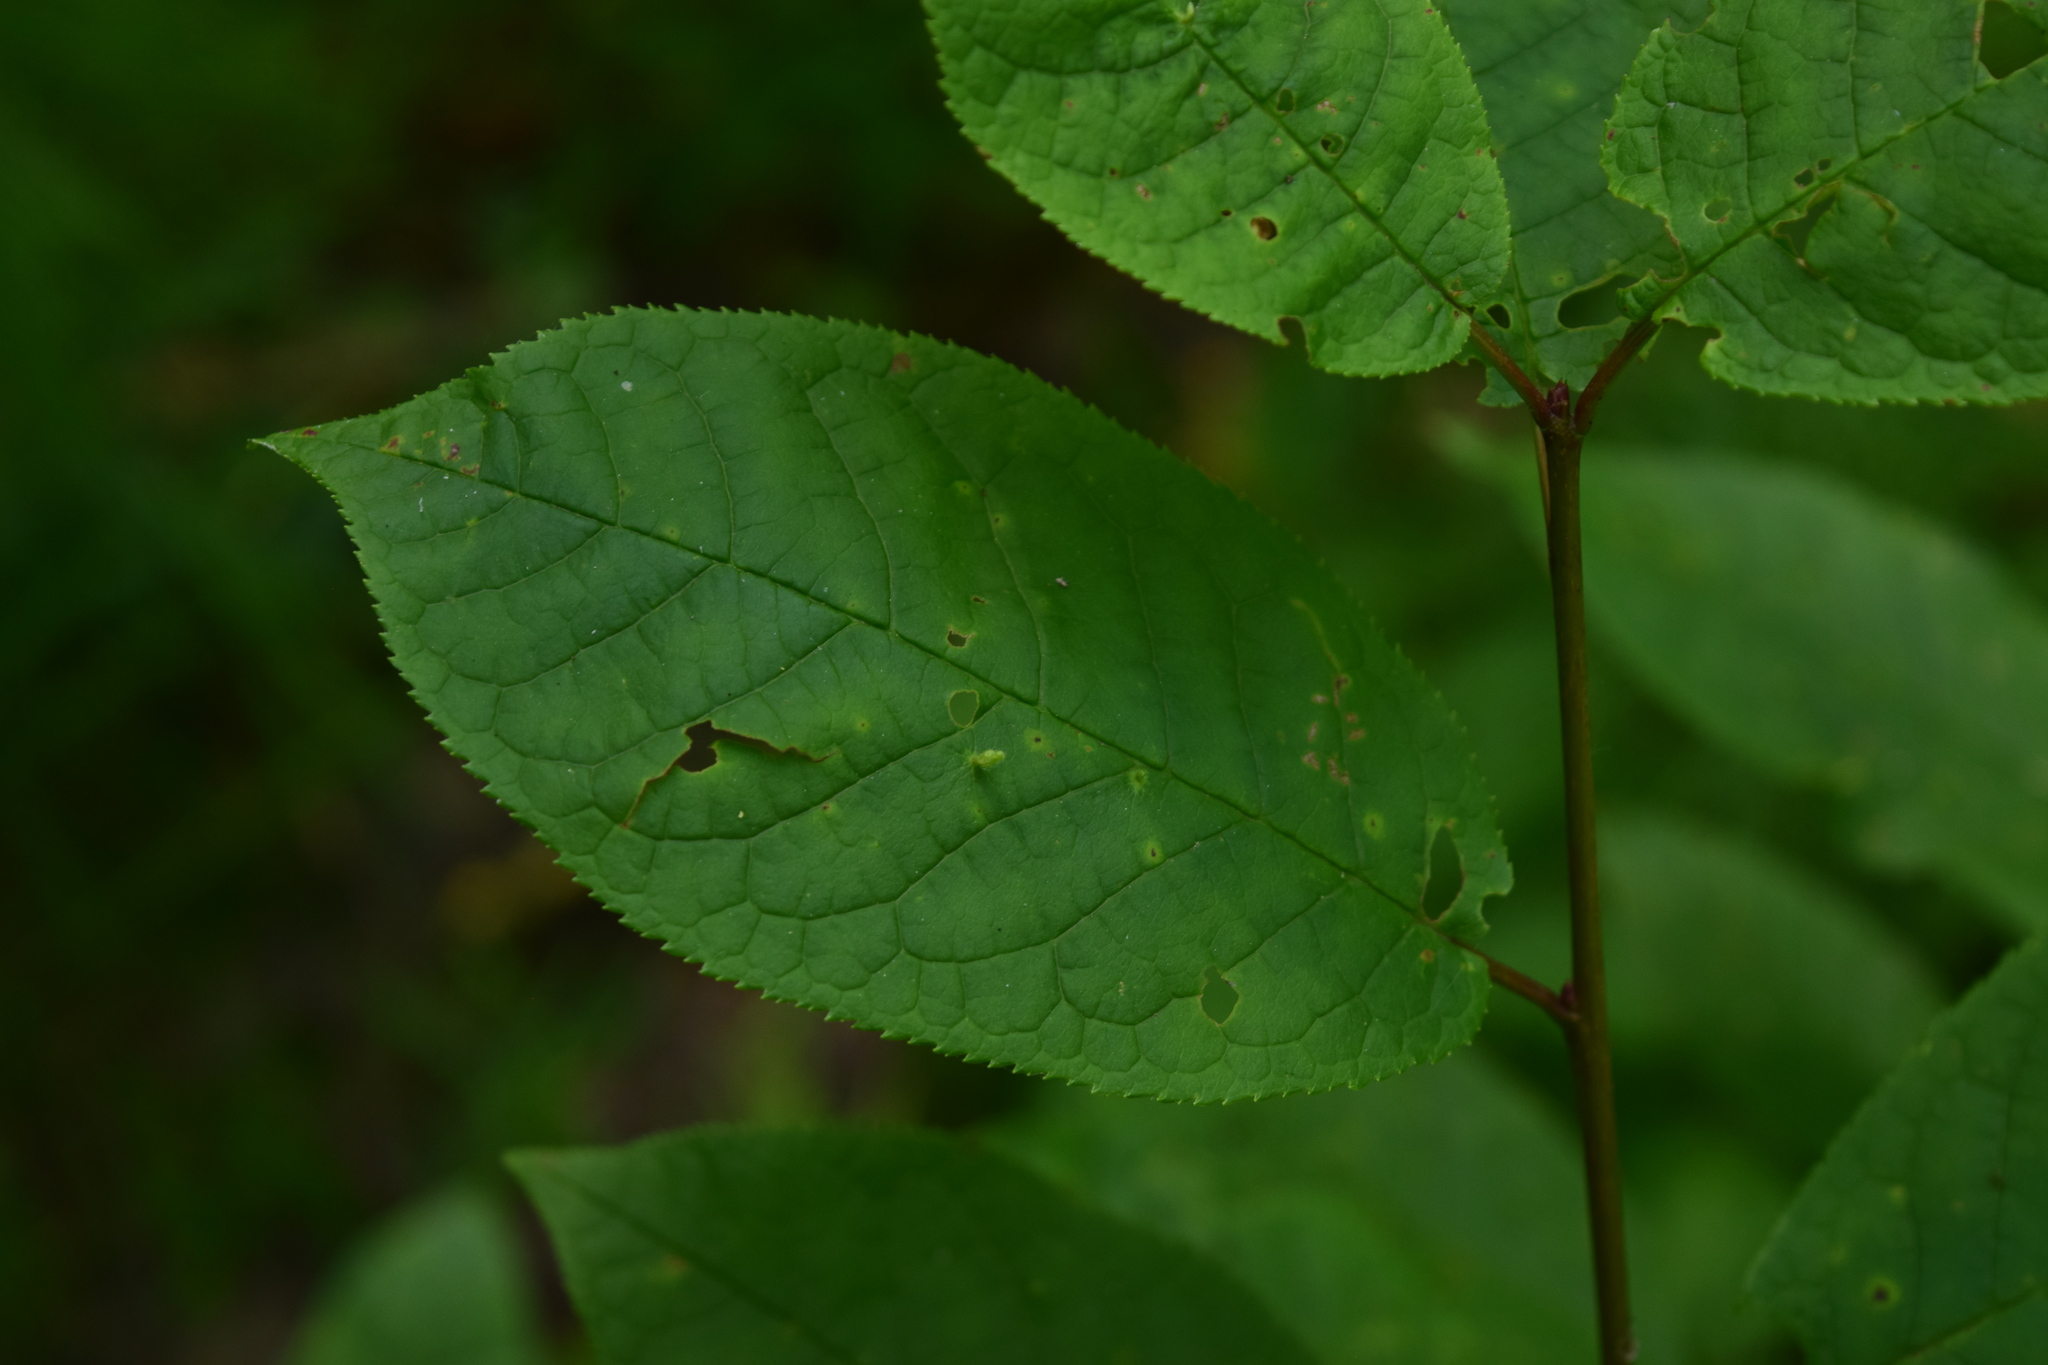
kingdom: Plantae
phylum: Tracheophyta
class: Magnoliopsida
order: Rosales
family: Rosaceae
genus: Prunus
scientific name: Prunus padus
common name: Bird cherry
